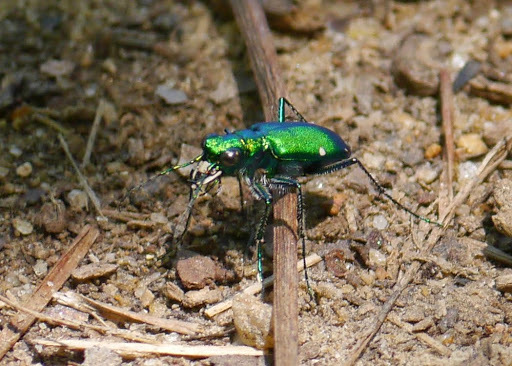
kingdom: Animalia
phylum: Arthropoda
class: Insecta
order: Coleoptera
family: Carabidae
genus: Cicindela
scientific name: Cicindela sexguttata
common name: Six-spotted tiger beetle
